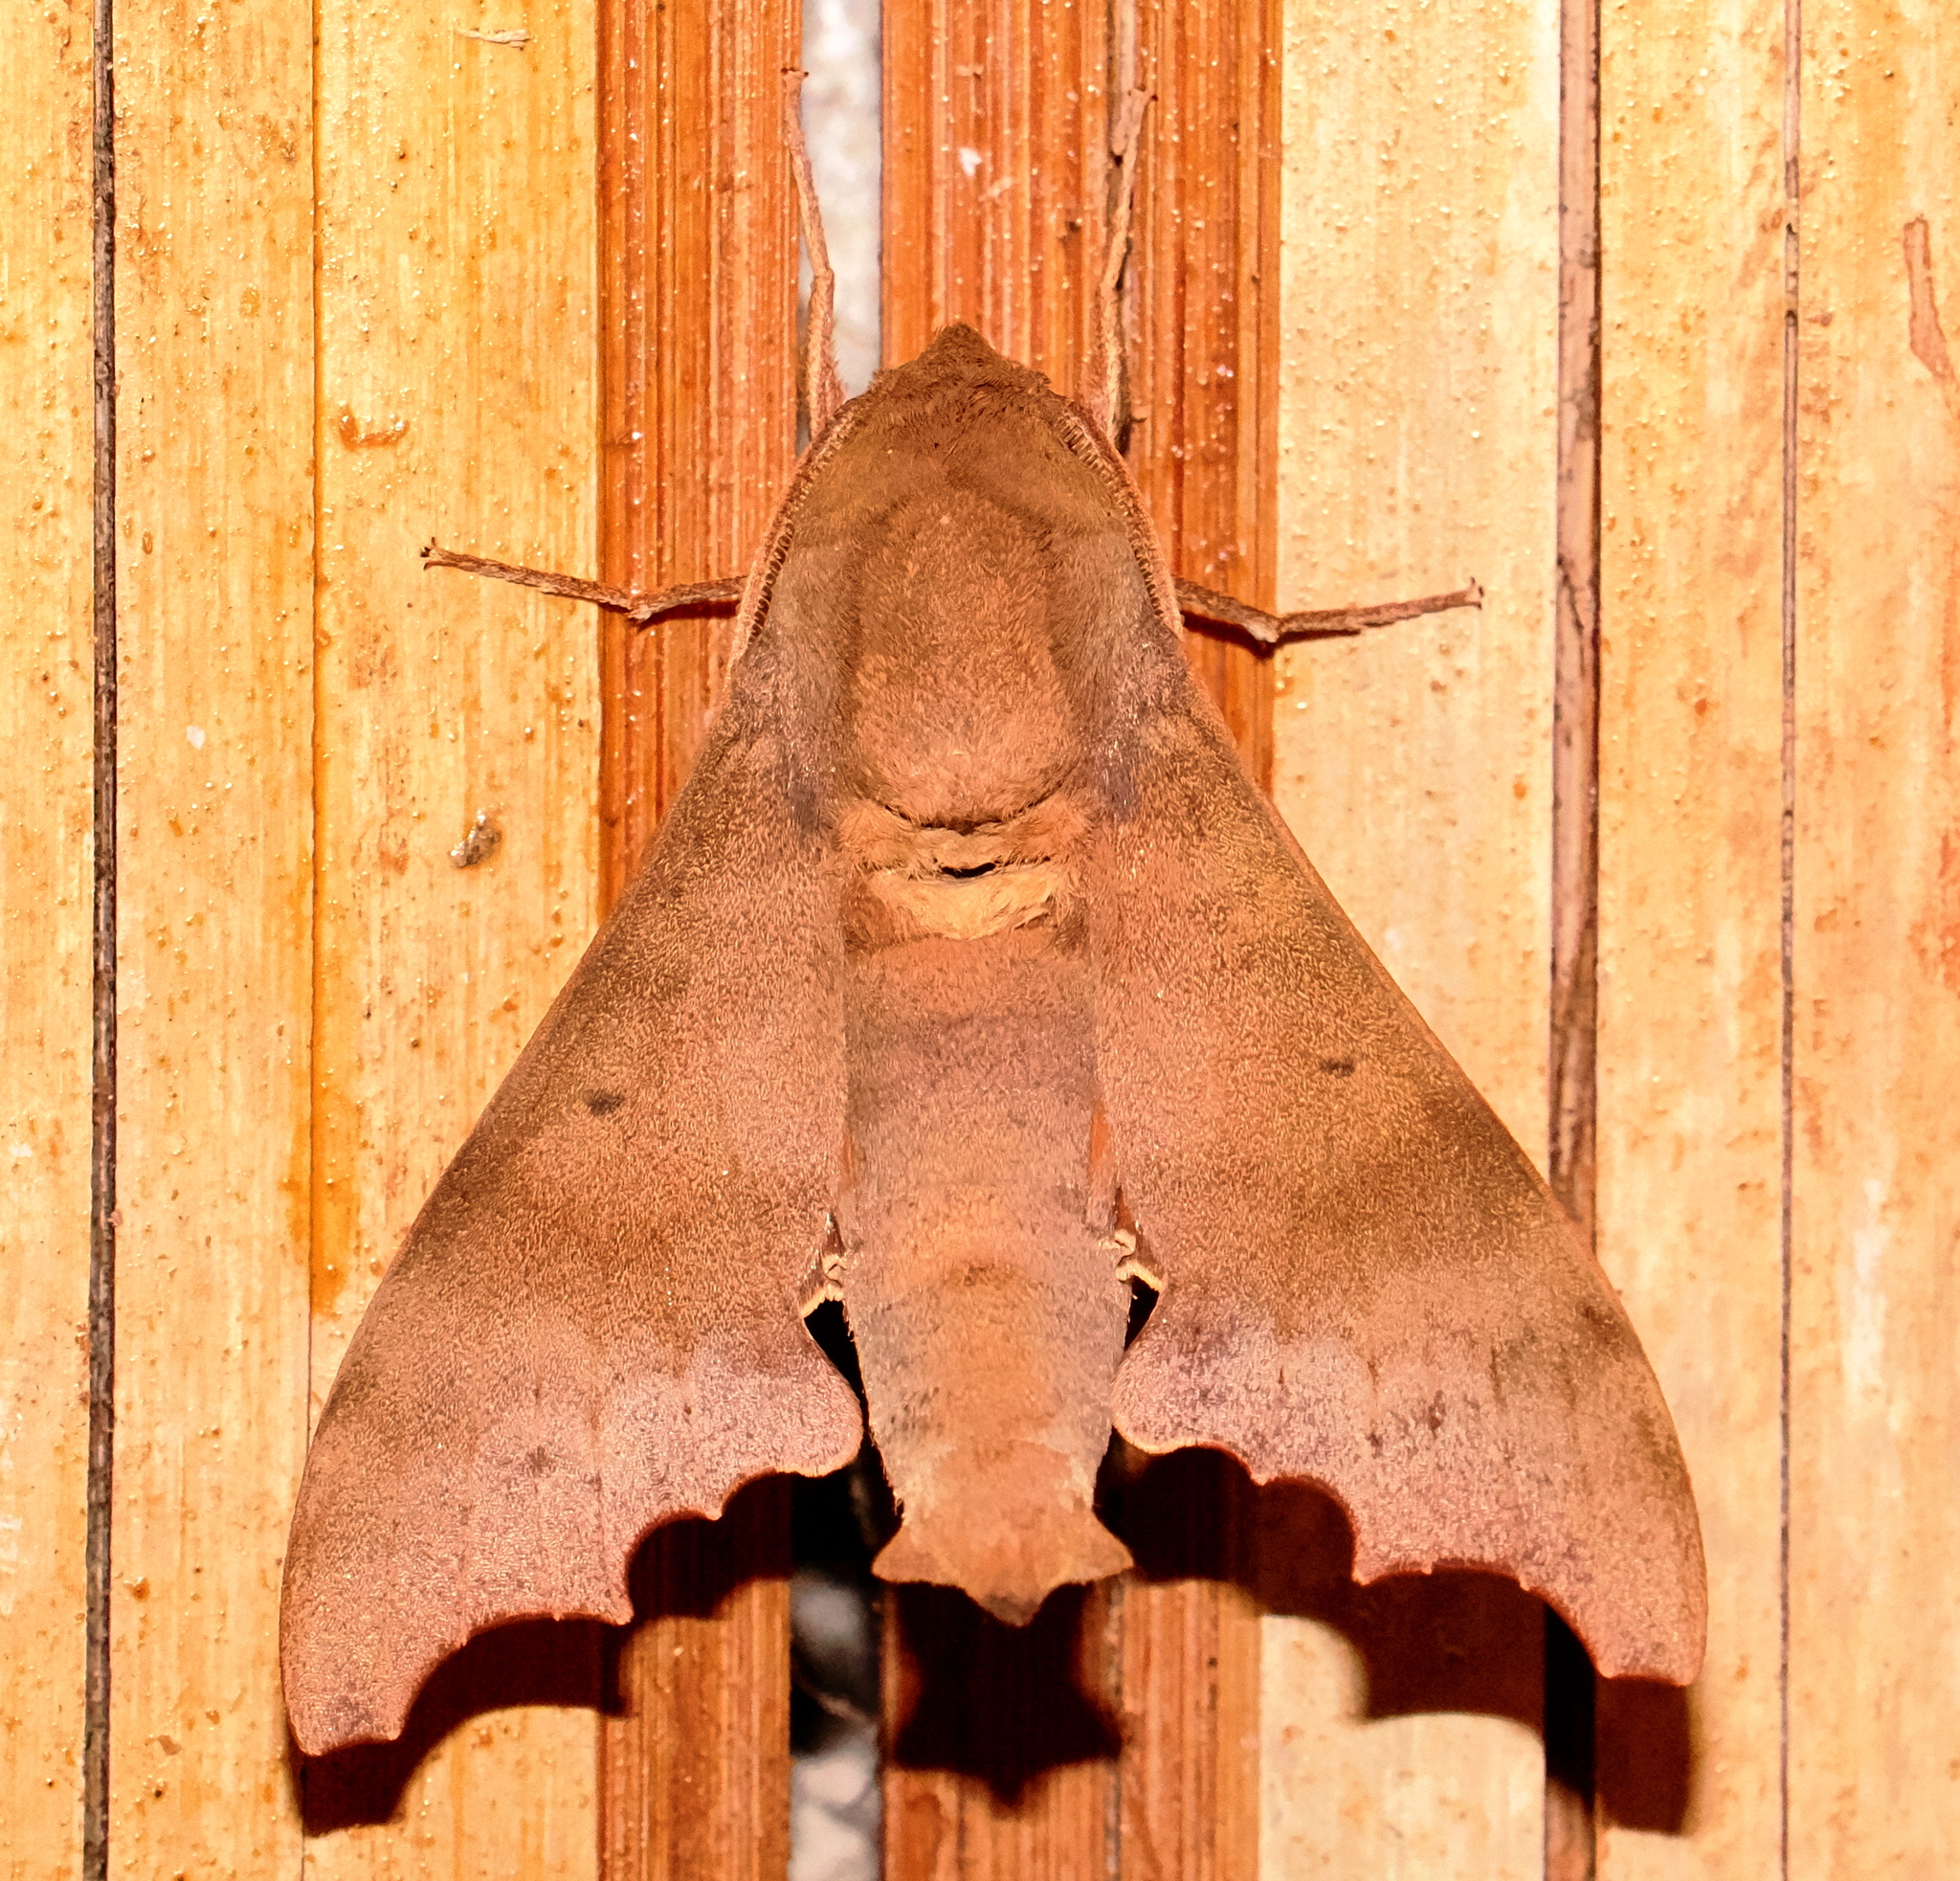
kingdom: Animalia
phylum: Arthropoda
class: Insecta
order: Lepidoptera
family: Sphingidae
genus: Cypa
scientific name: Cypa decolor
